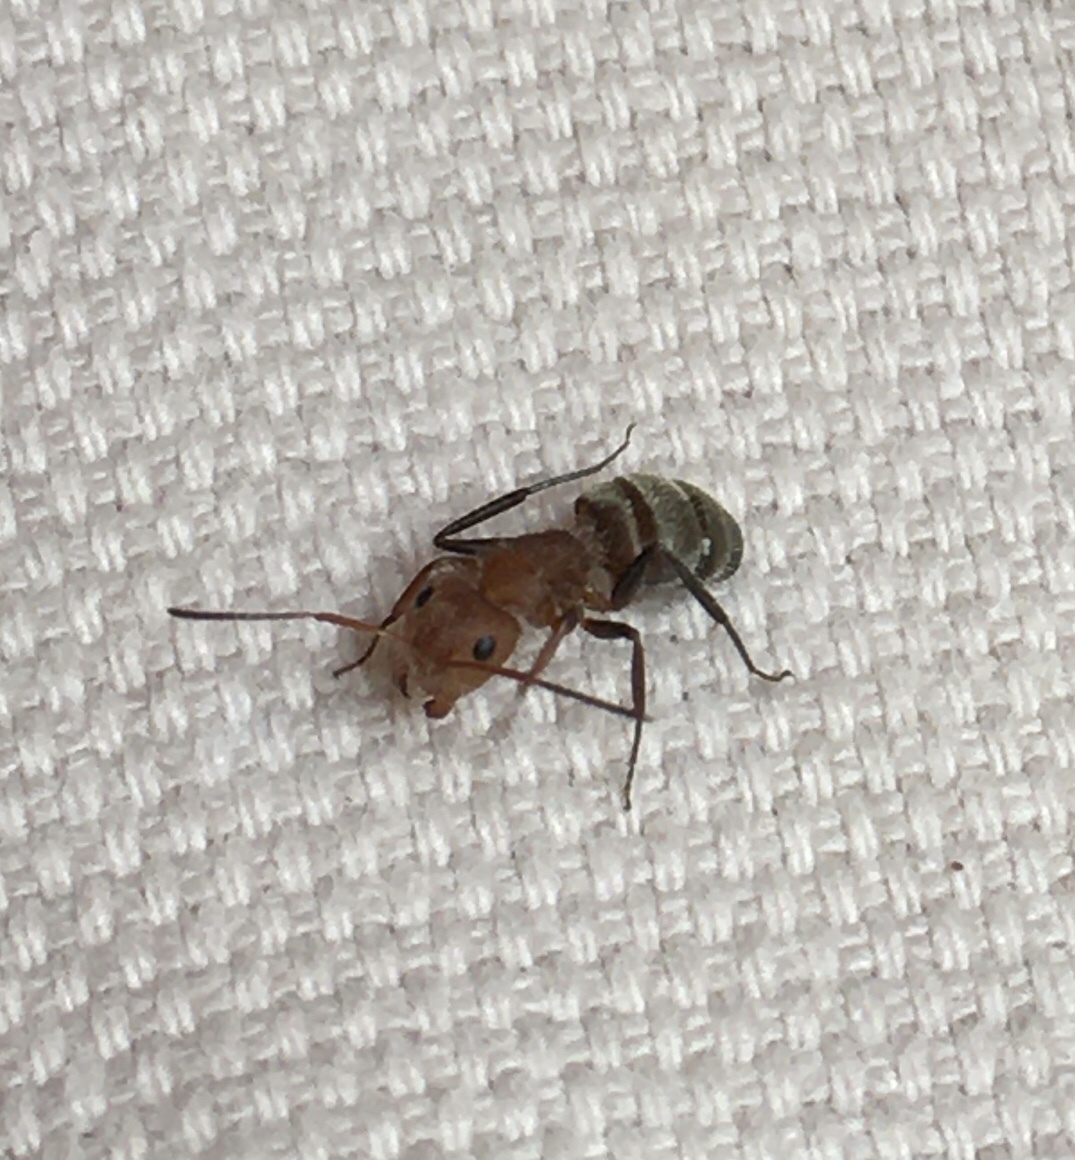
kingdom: Animalia
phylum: Arthropoda
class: Insecta
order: Hymenoptera
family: Formicidae
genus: Camponotus
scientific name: Camponotus planatus
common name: Compact carpenter ant
